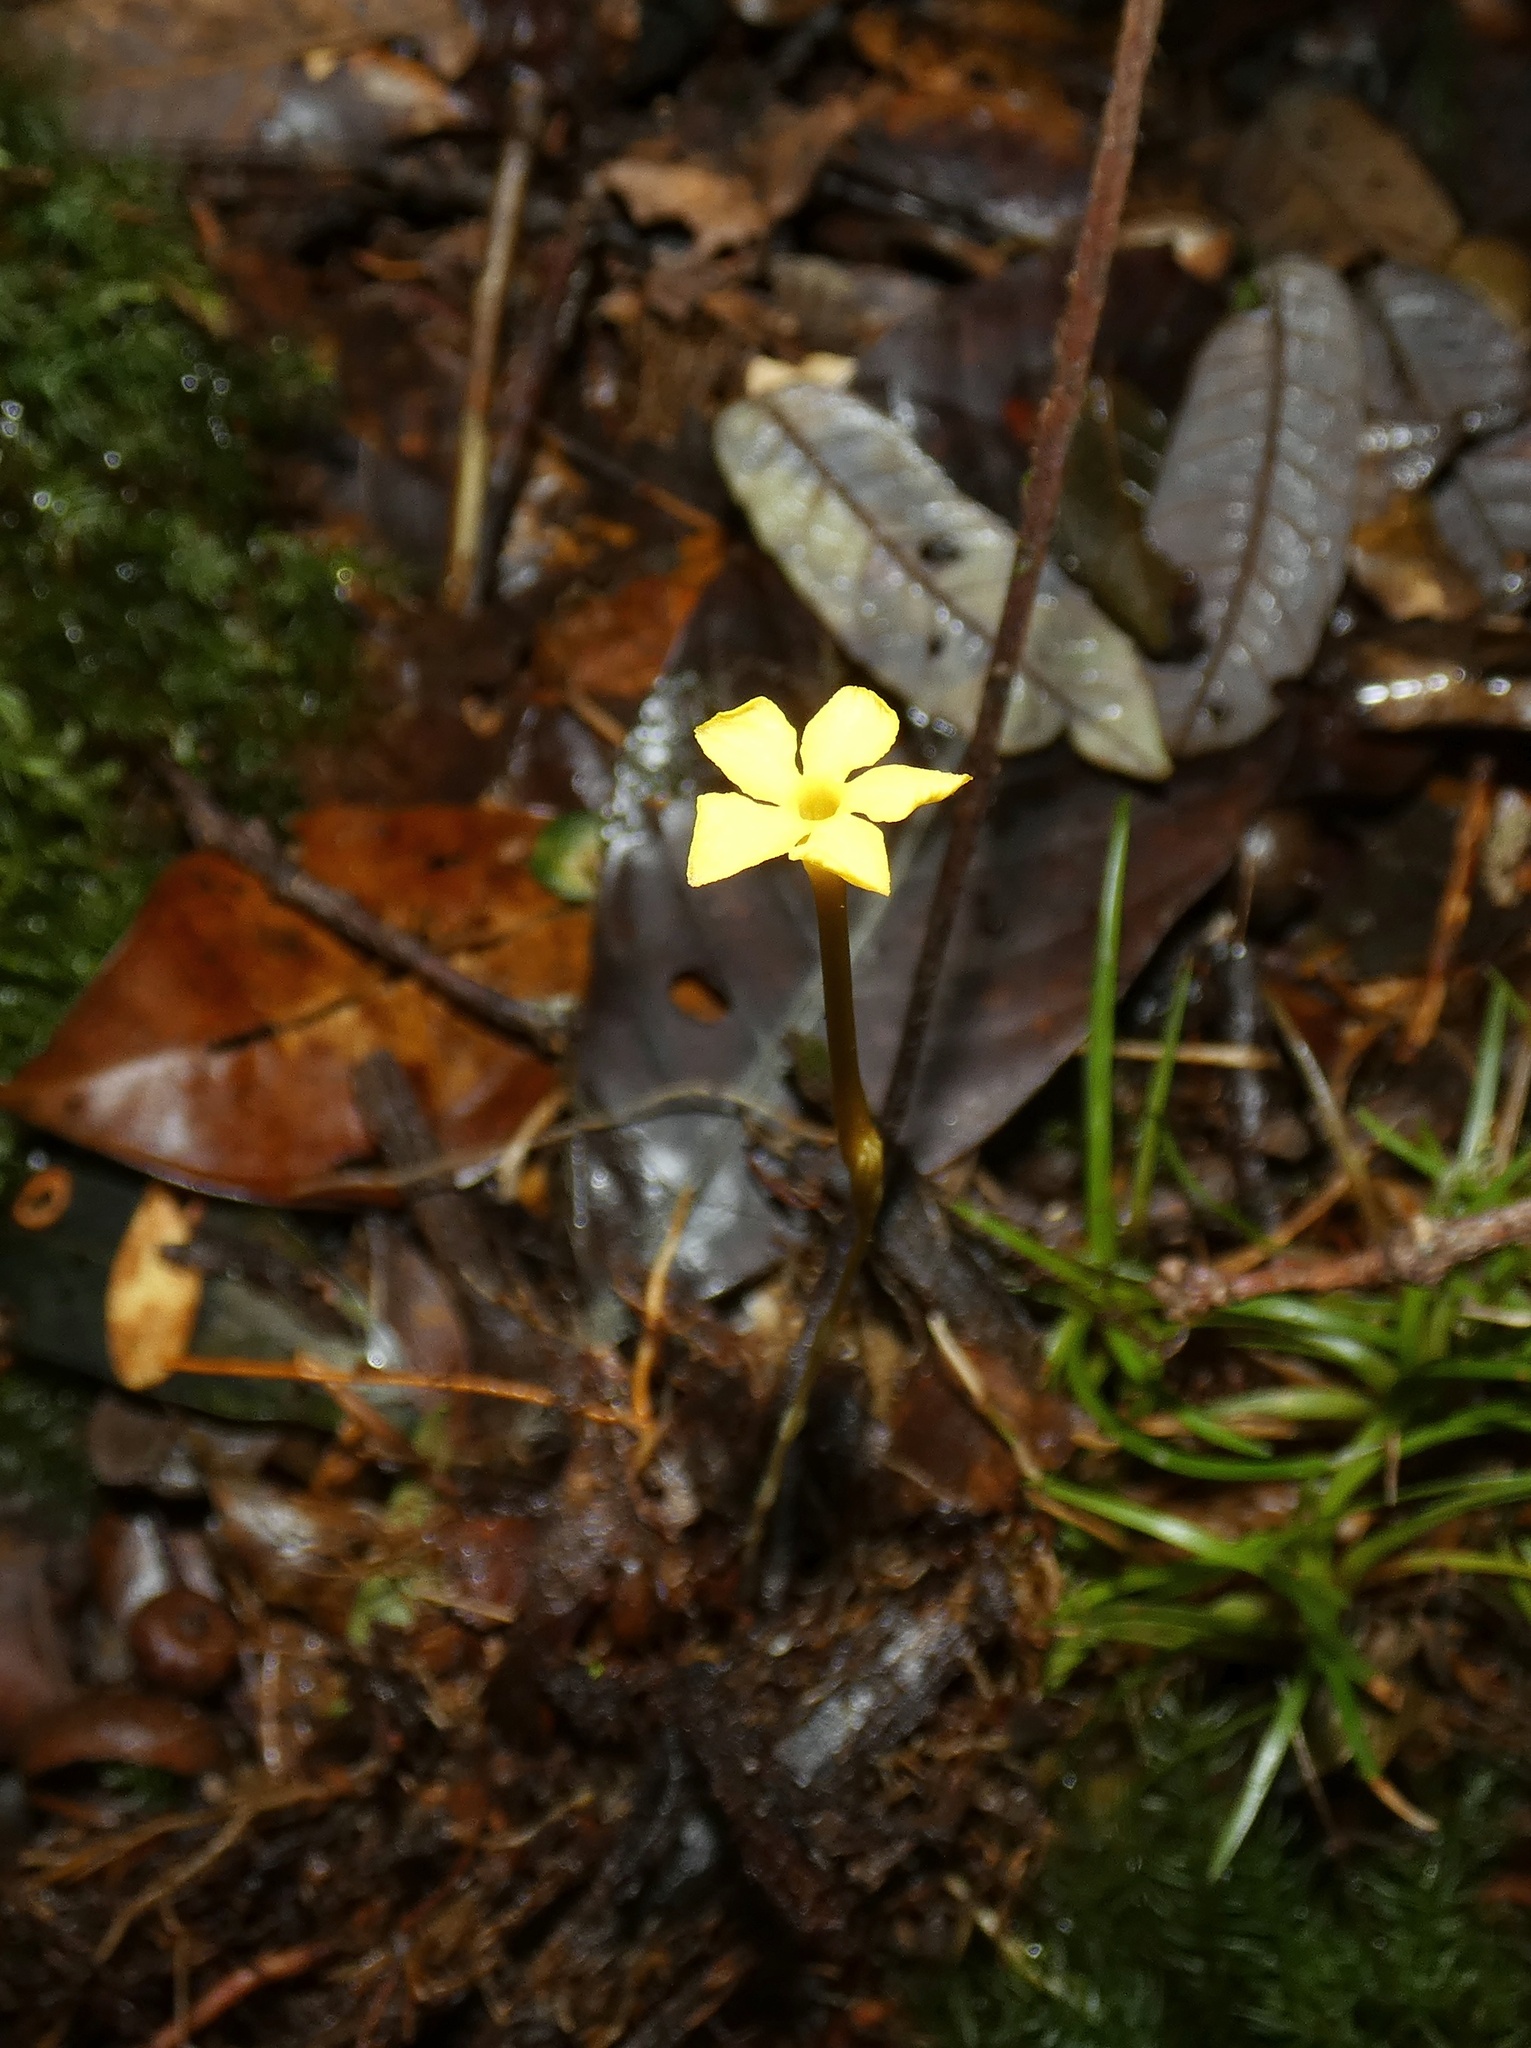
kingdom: Plantae
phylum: Tracheophyta
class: Magnoliopsida
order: Gentianales
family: Gentianaceae
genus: Voyria
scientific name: Voyria aphylla
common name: Leafless ghost plant
